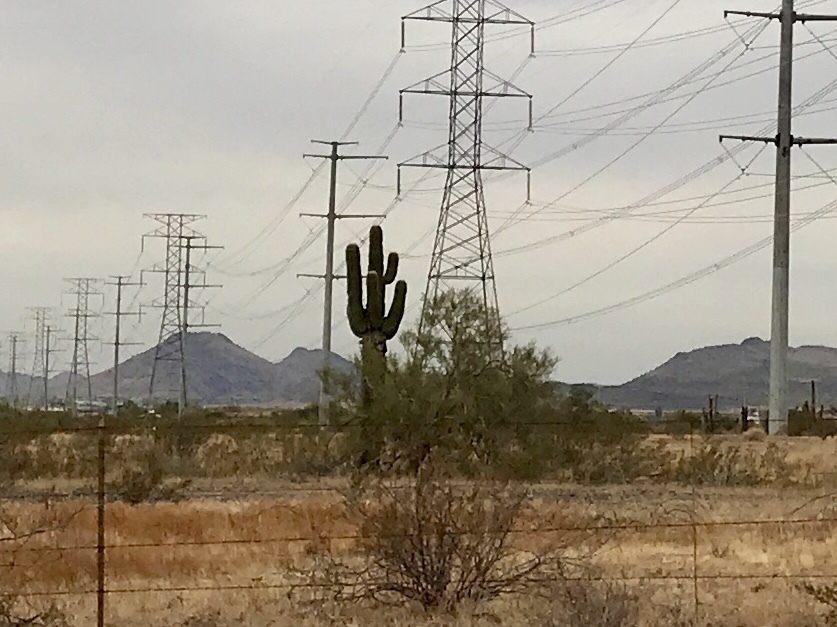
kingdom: Plantae
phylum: Tracheophyta
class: Magnoliopsida
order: Caryophyllales
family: Cactaceae
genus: Carnegiea
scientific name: Carnegiea gigantea
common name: Saguaro
